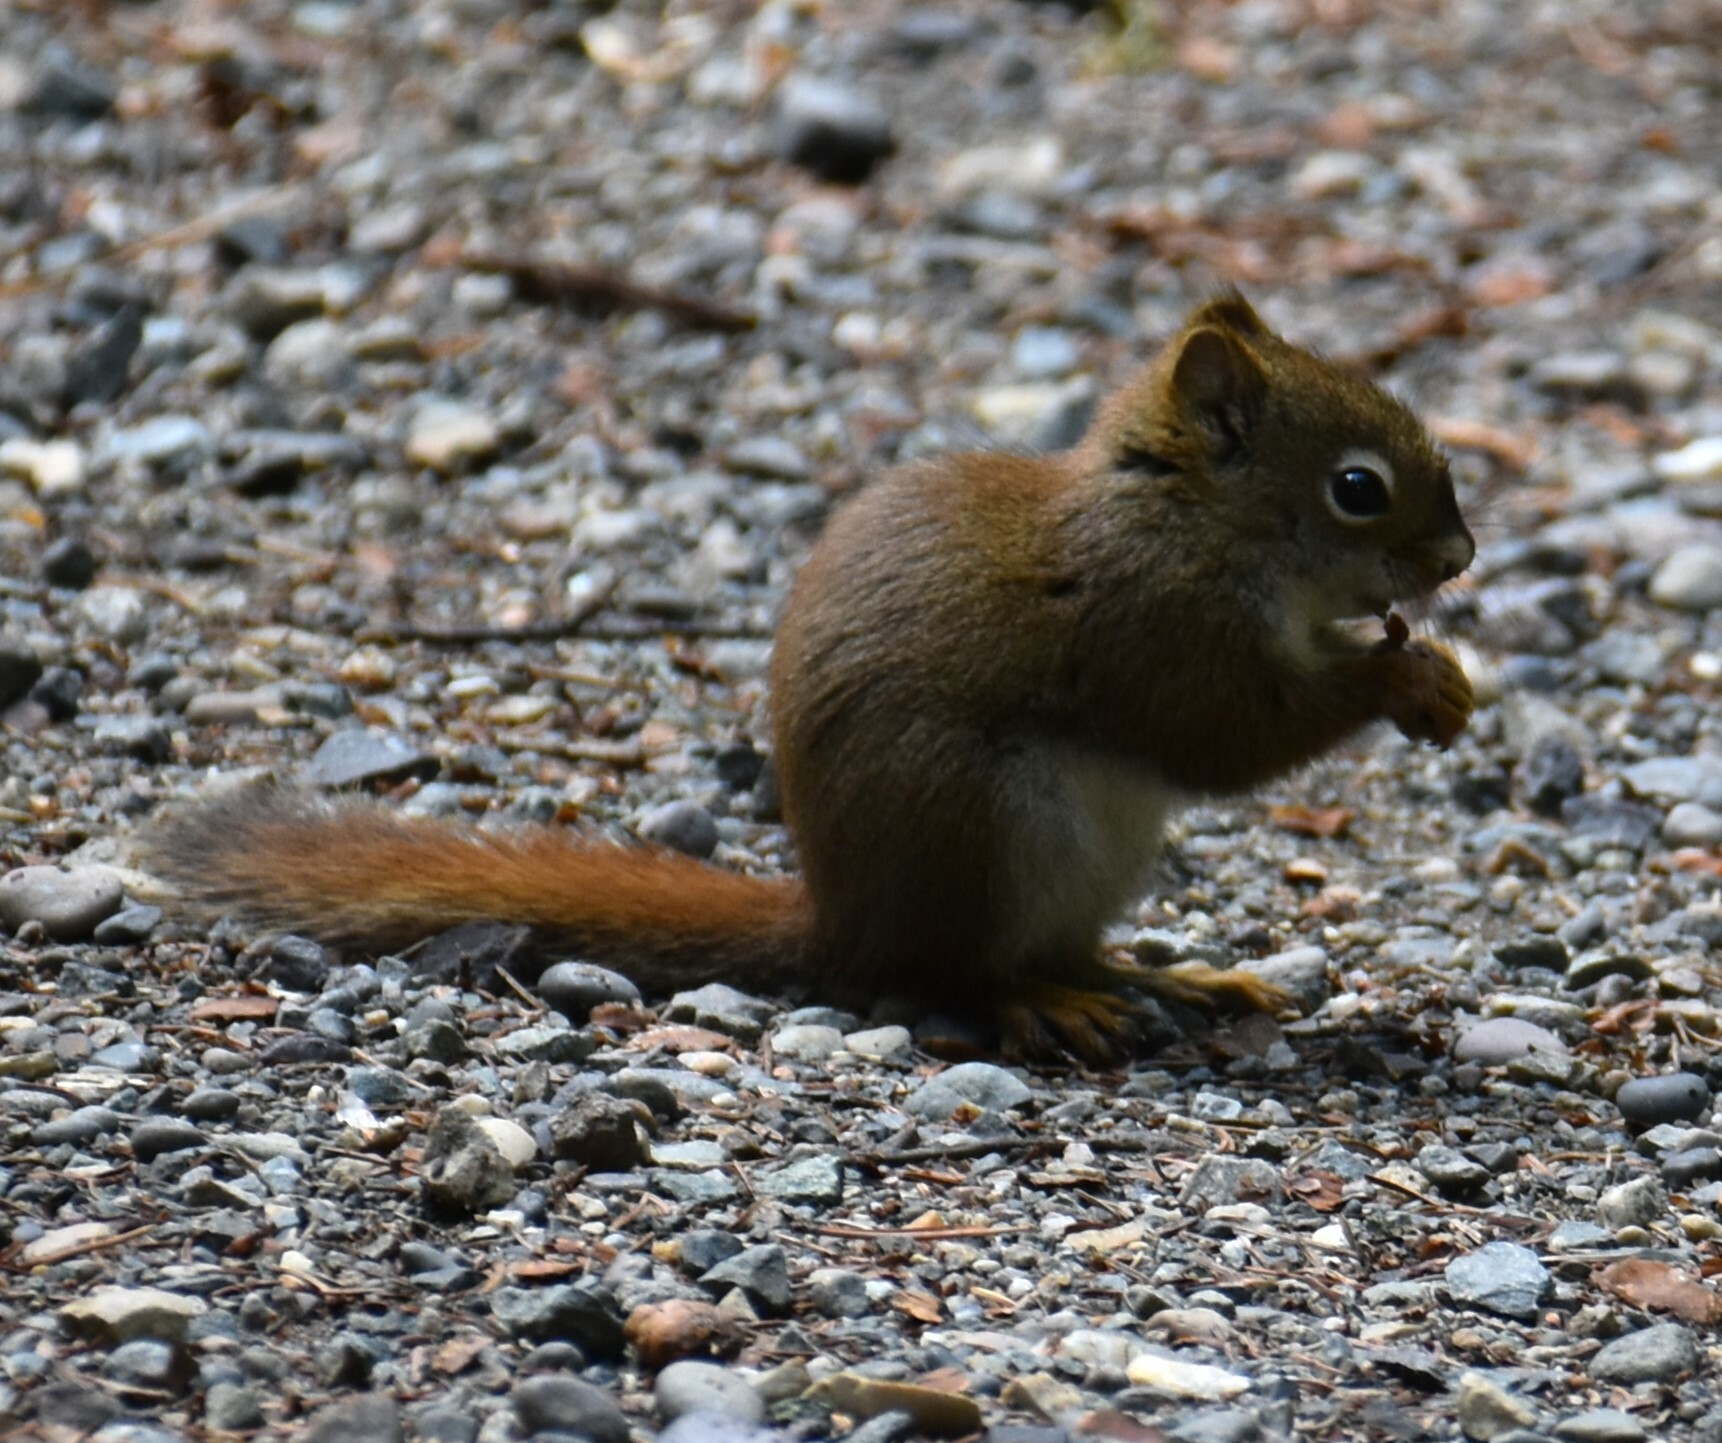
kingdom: Animalia
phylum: Chordata
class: Mammalia
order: Rodentia
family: Sciuridae
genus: Tamiasciurus
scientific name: Tamiasciurus hudsonicus
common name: Red squirrel
